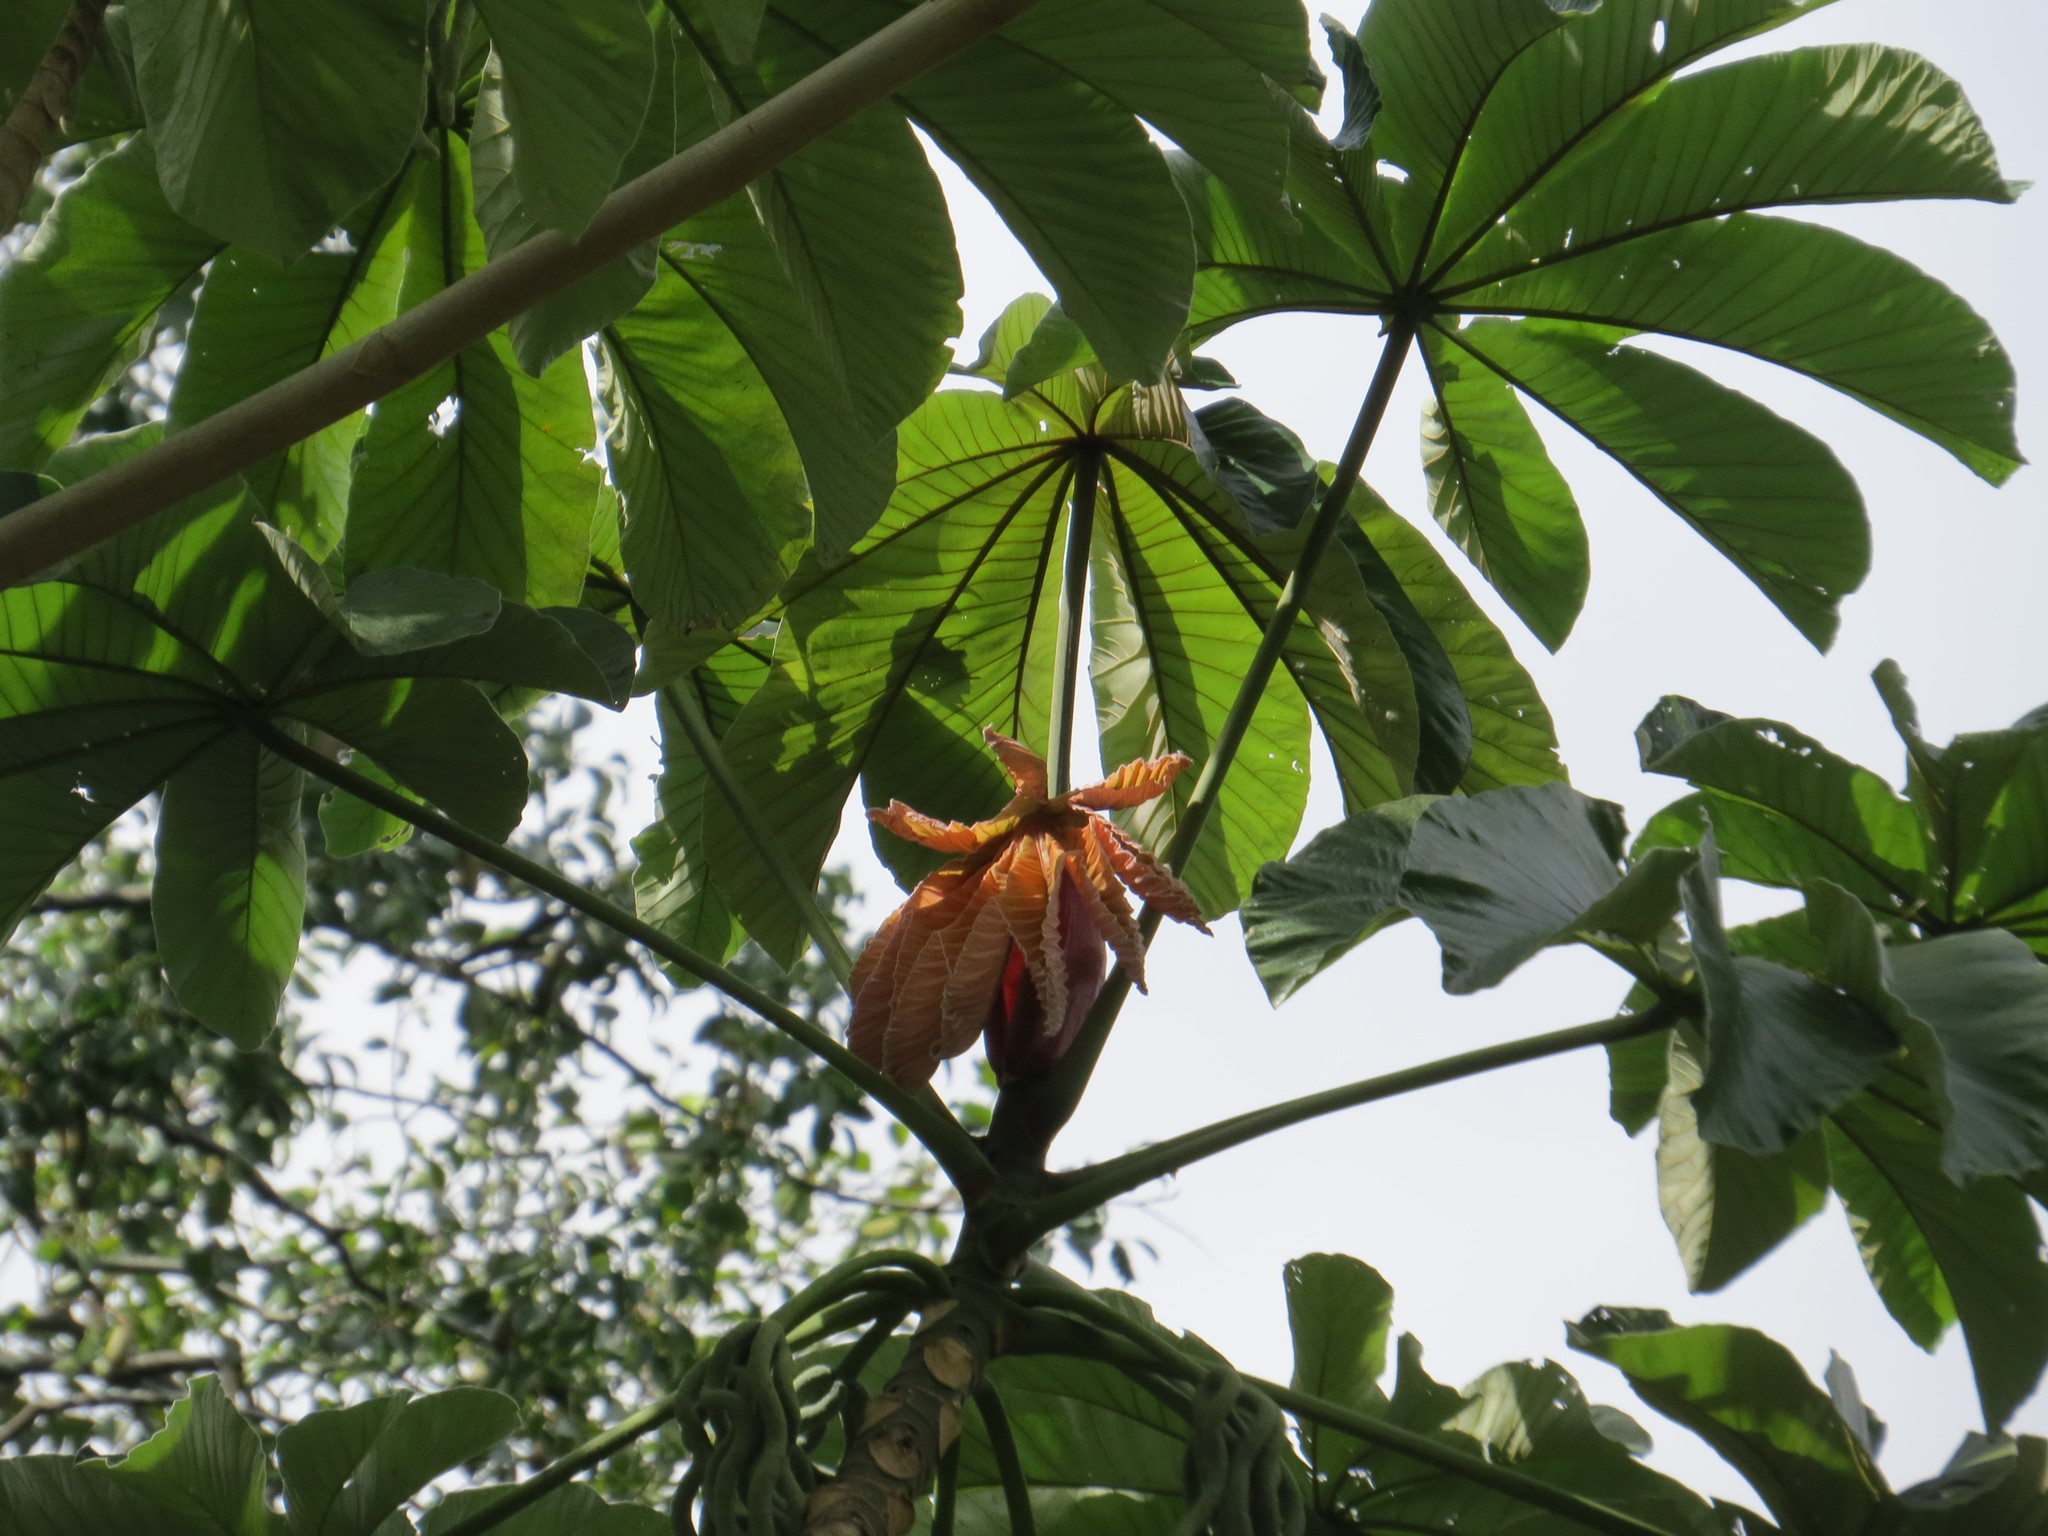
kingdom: Plantae
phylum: Tracheophyta
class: Magnoliopsida
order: Rosales
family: Urticaceae
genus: Cecropia
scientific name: Cecropia glaziovii
